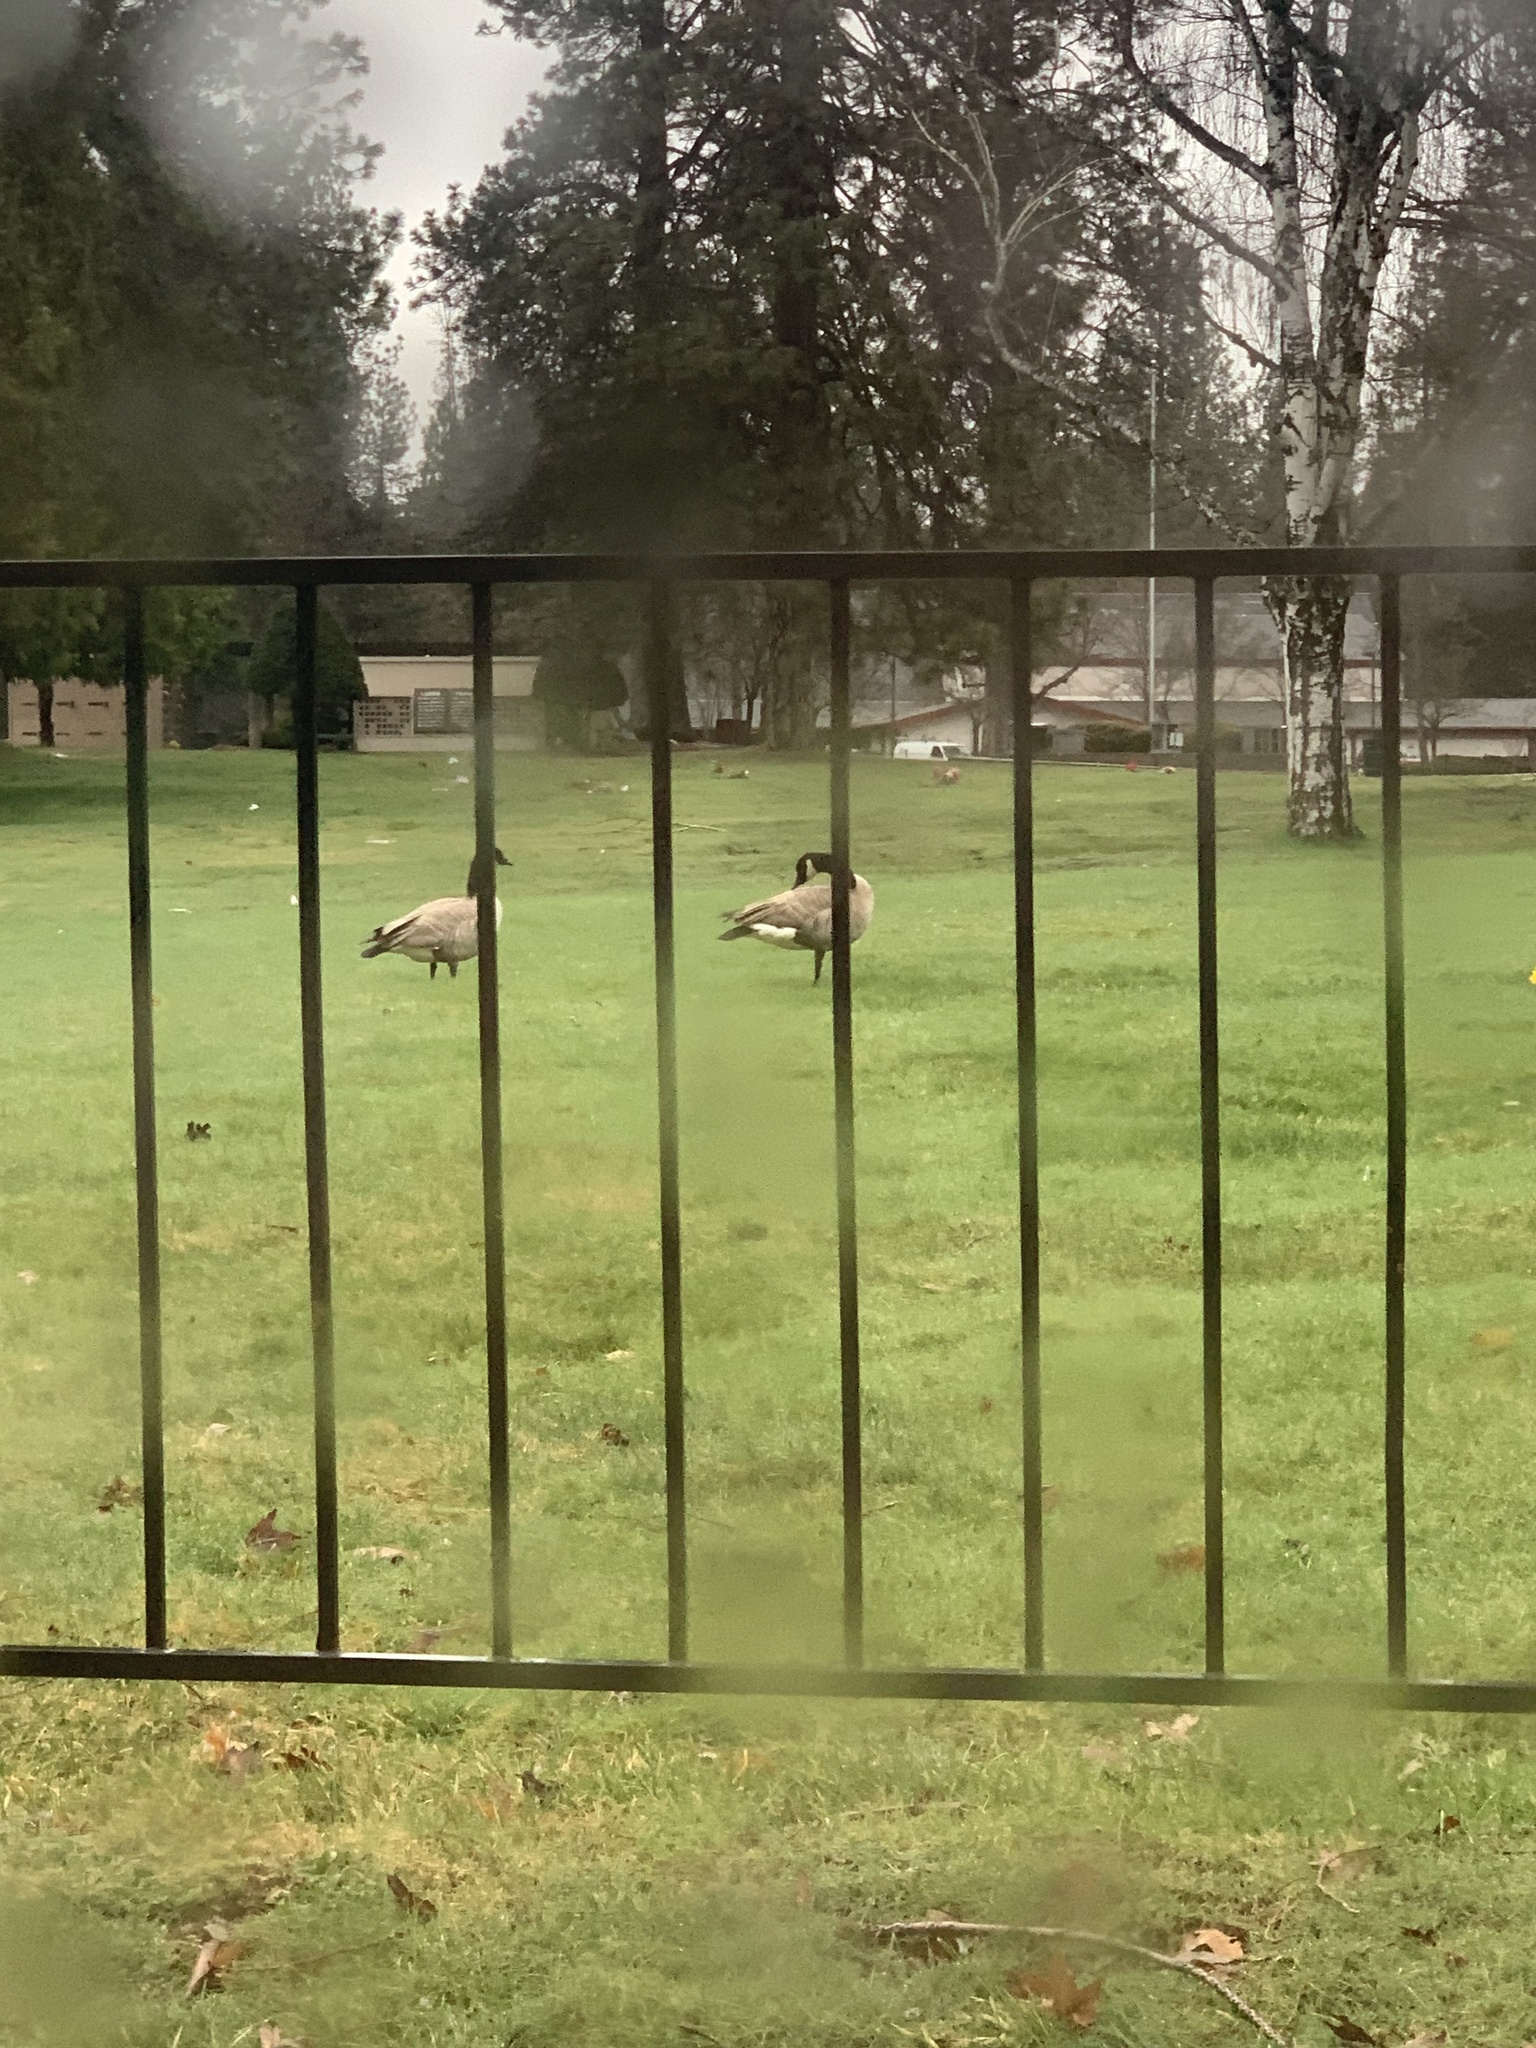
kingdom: Animalia
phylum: Chordata
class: Aves
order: Anseriformes
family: Anatidae
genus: Branta
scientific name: Branta canadensis
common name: Canada goose
